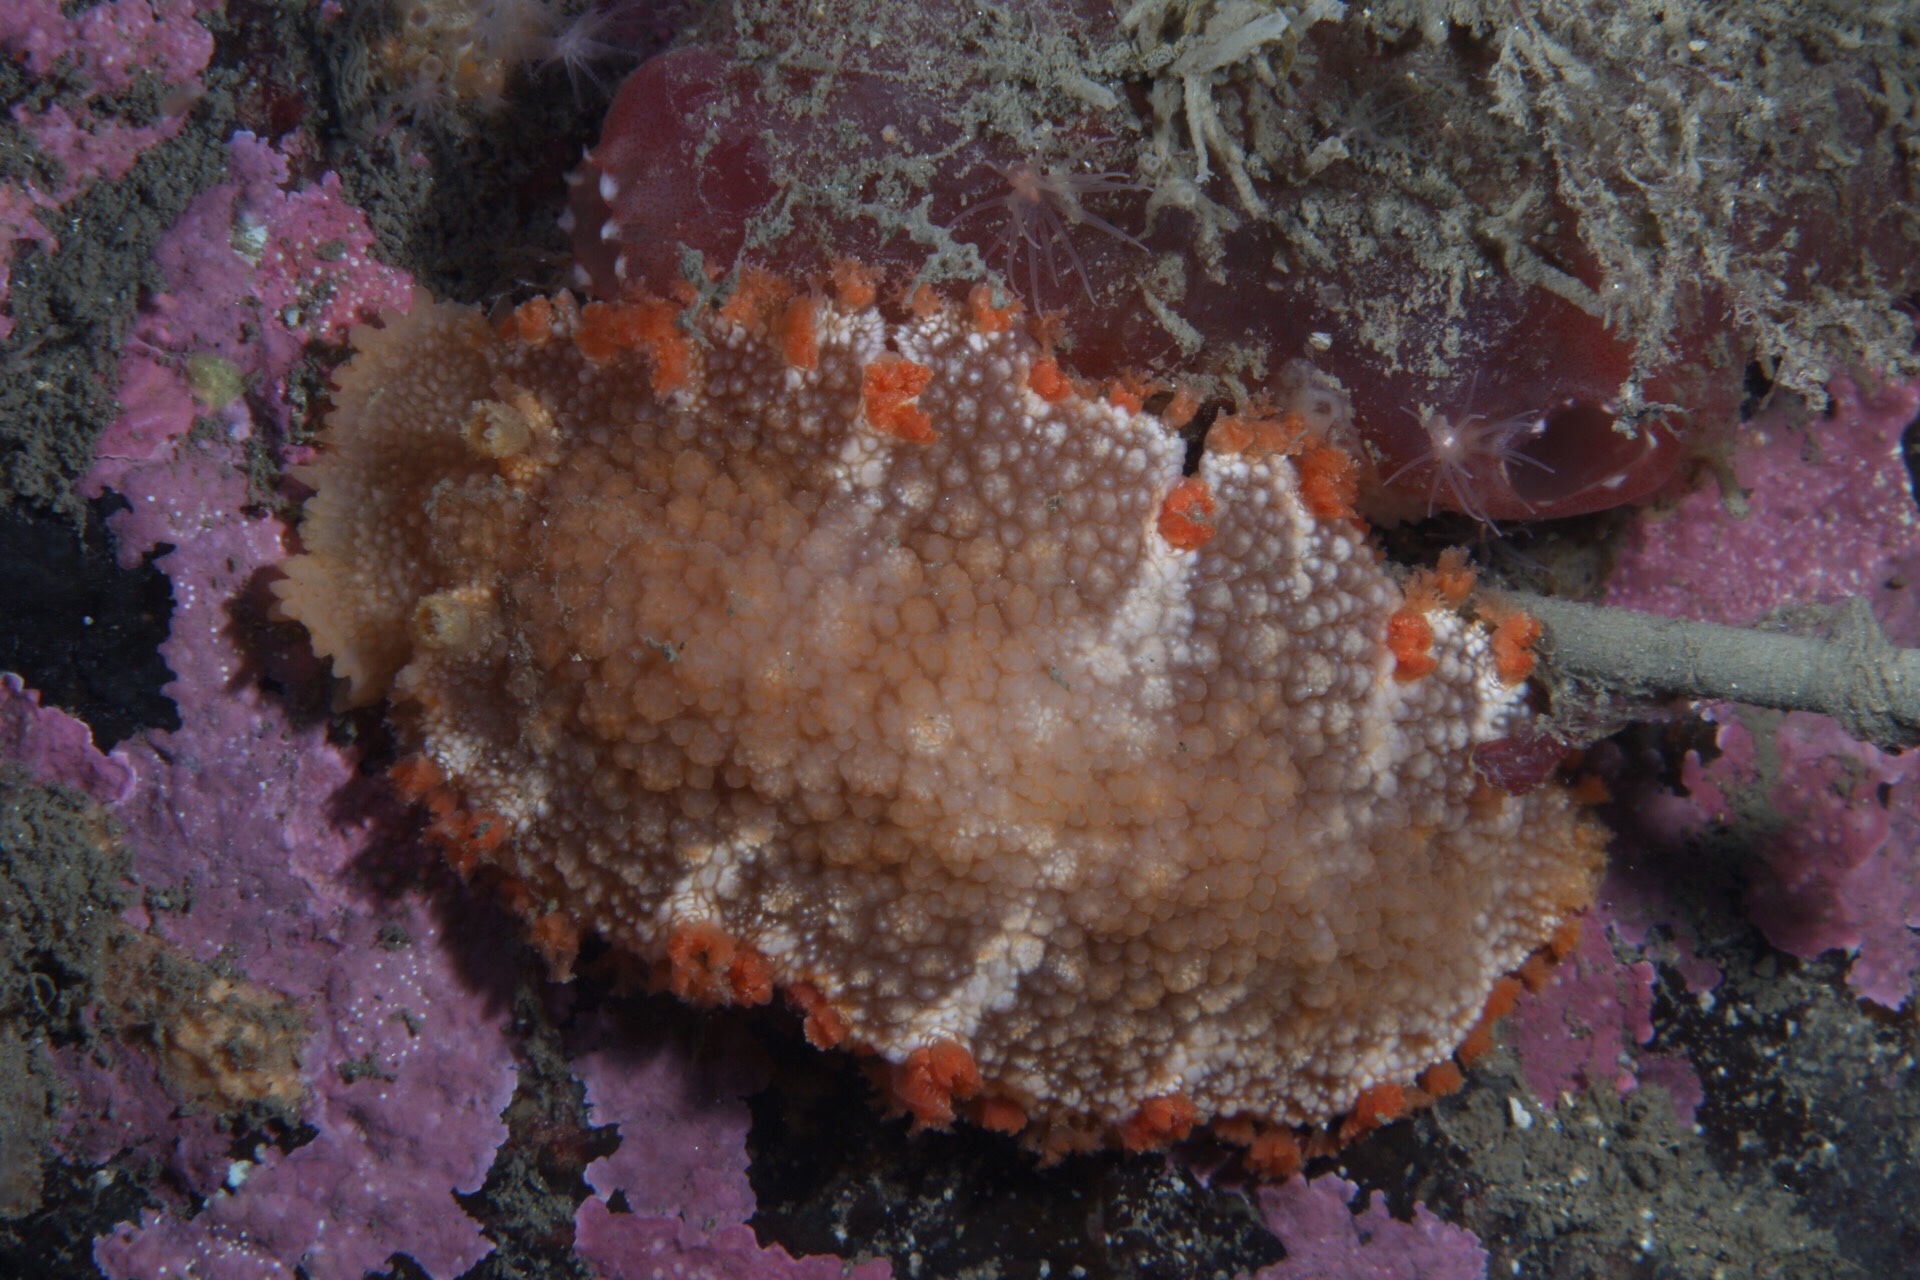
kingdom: Animalia
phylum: Mollusca
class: Gastropoda
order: Nudibranchia
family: Tritoniidae
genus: Tritonia
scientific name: Tritonia hombergii
